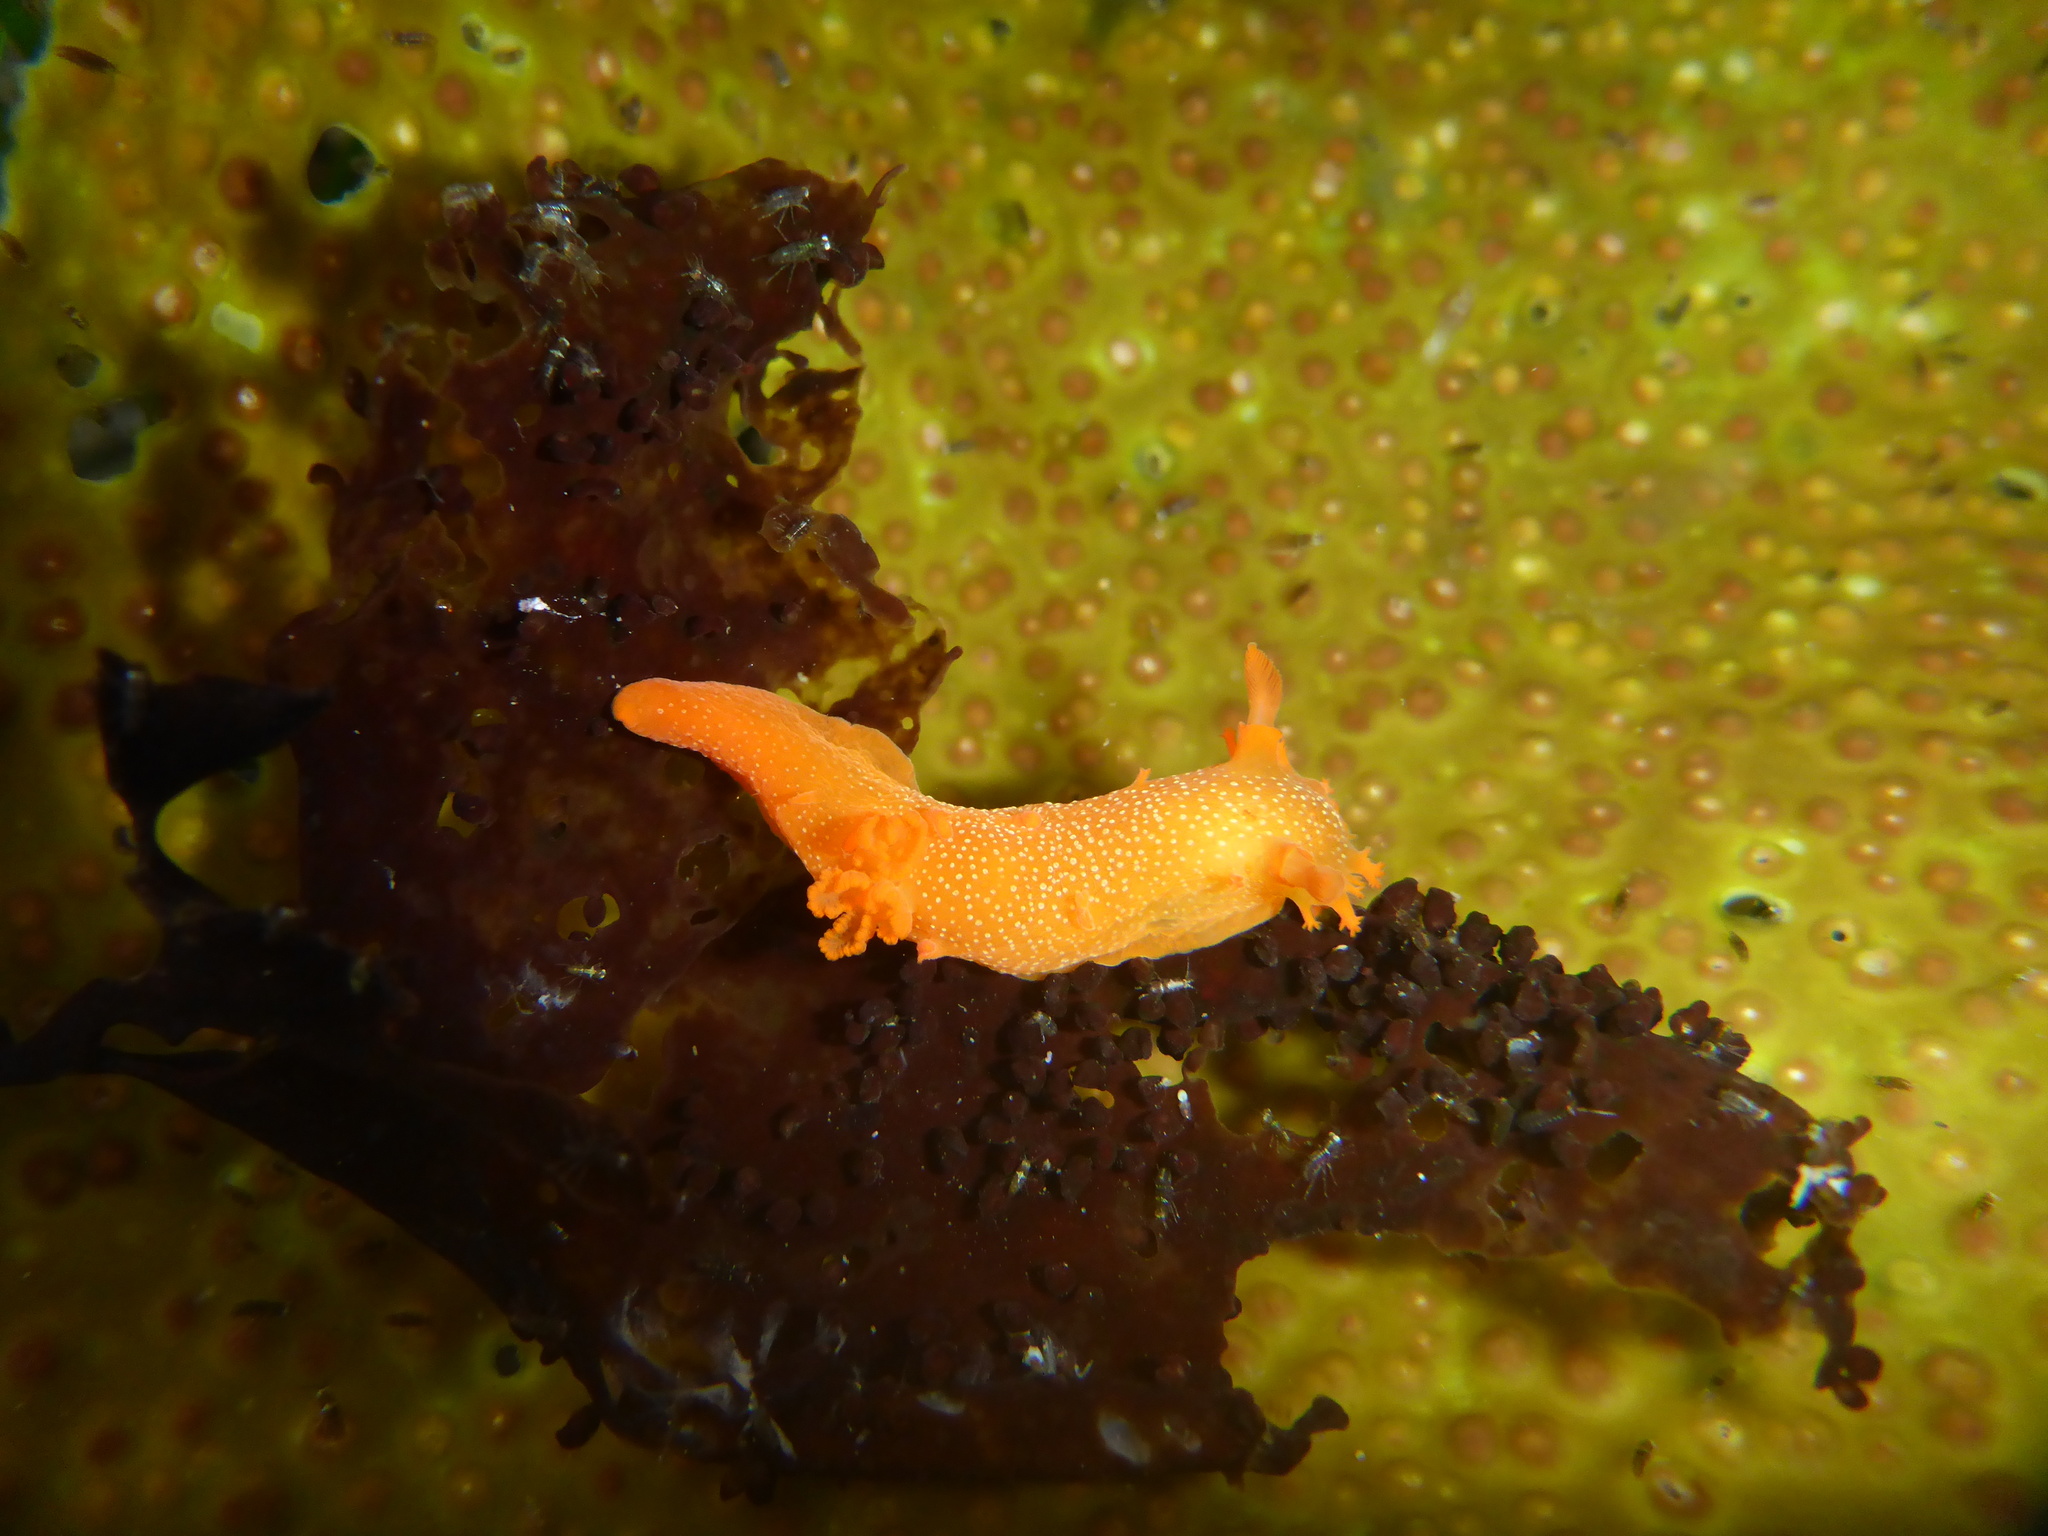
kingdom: Animalia
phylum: Mollusca
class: Gastropoda
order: Nudibranchia
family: Polyceridae
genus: Triopha
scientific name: Triopha maculata
